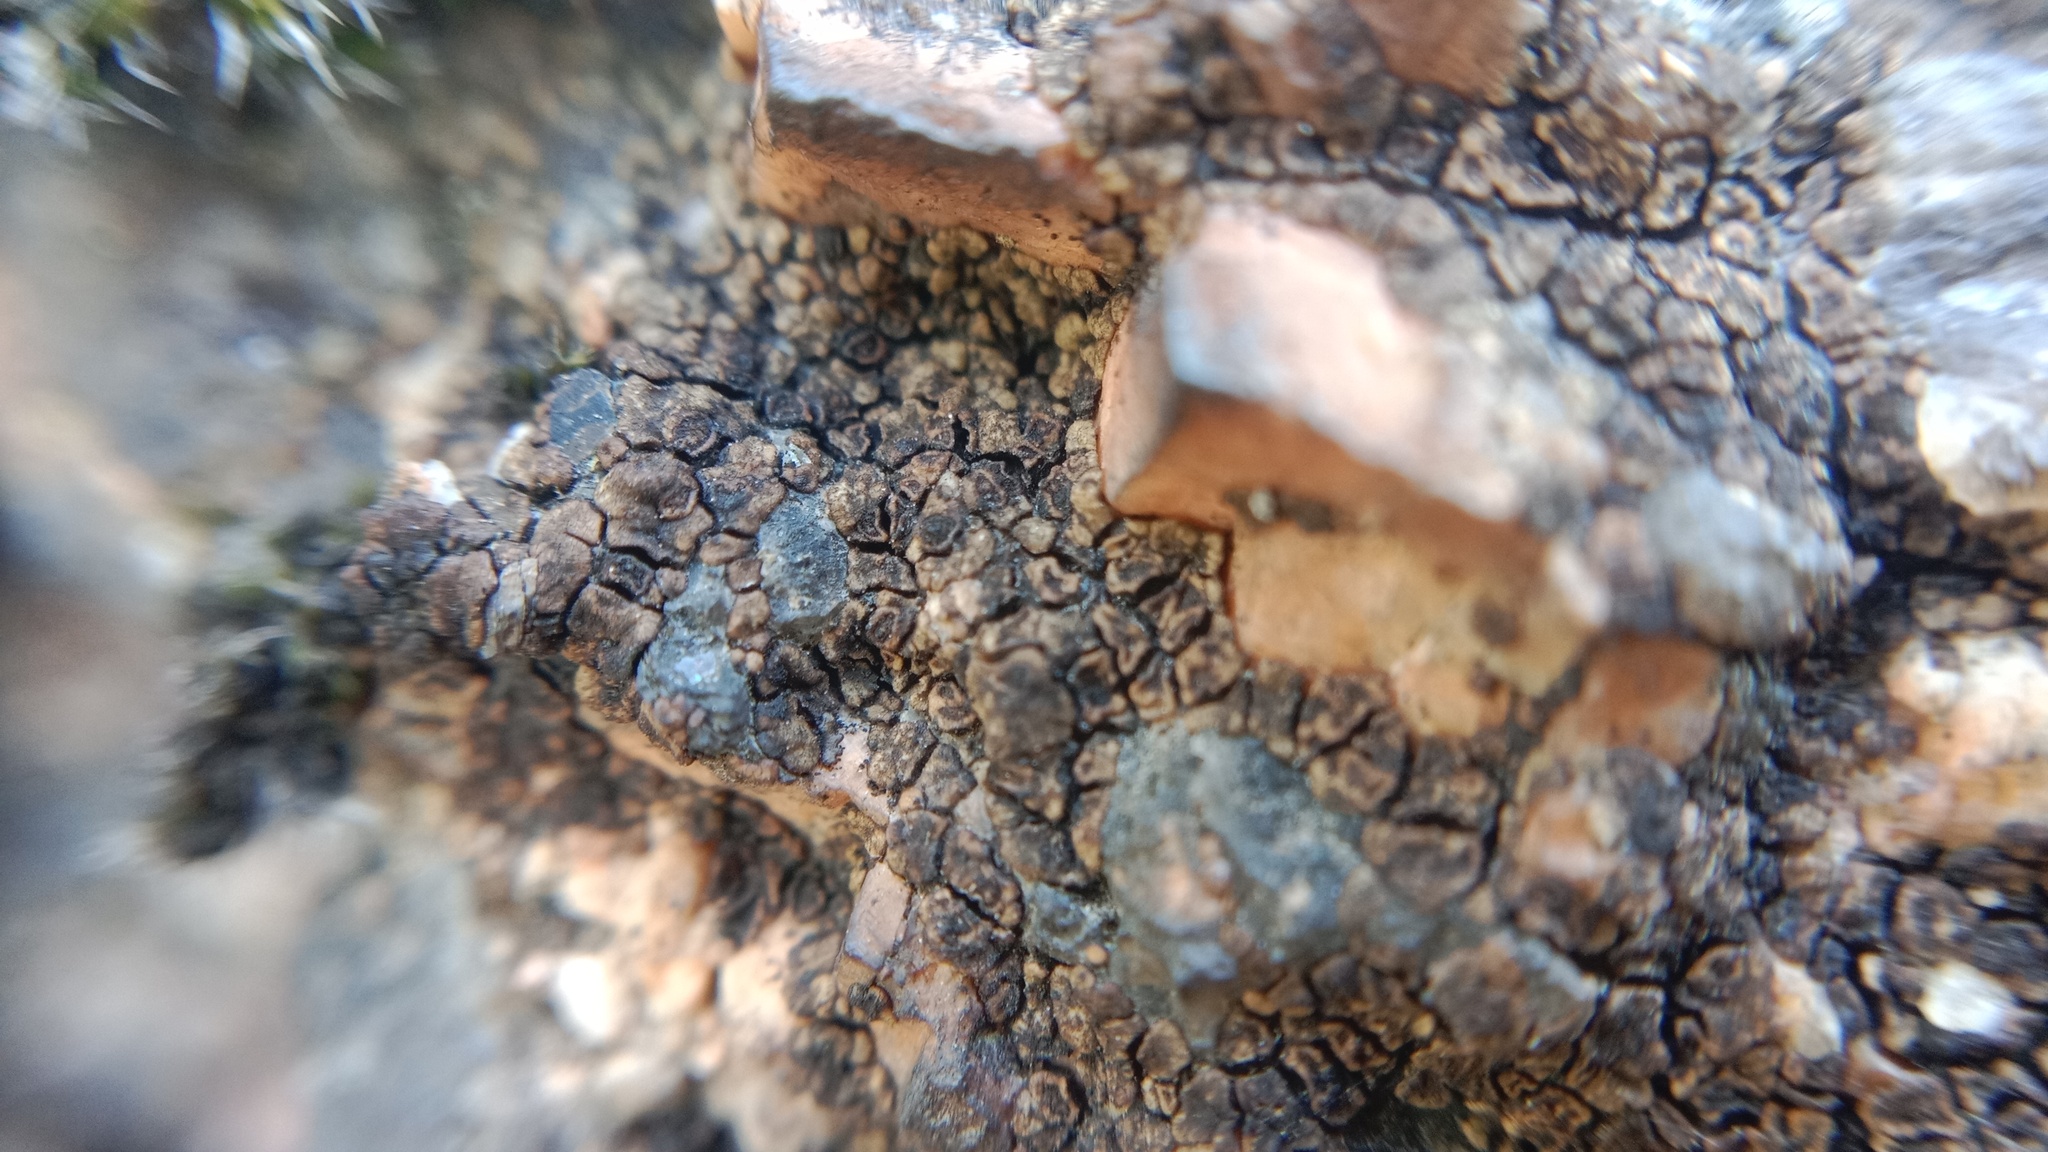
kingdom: Fungi
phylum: Ascomycota
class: Lecanoromycetes
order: Acarosporales
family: Acarosporaceae
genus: Acarospora
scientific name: Acarospora fuscata
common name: Brown cobblestone lichen
